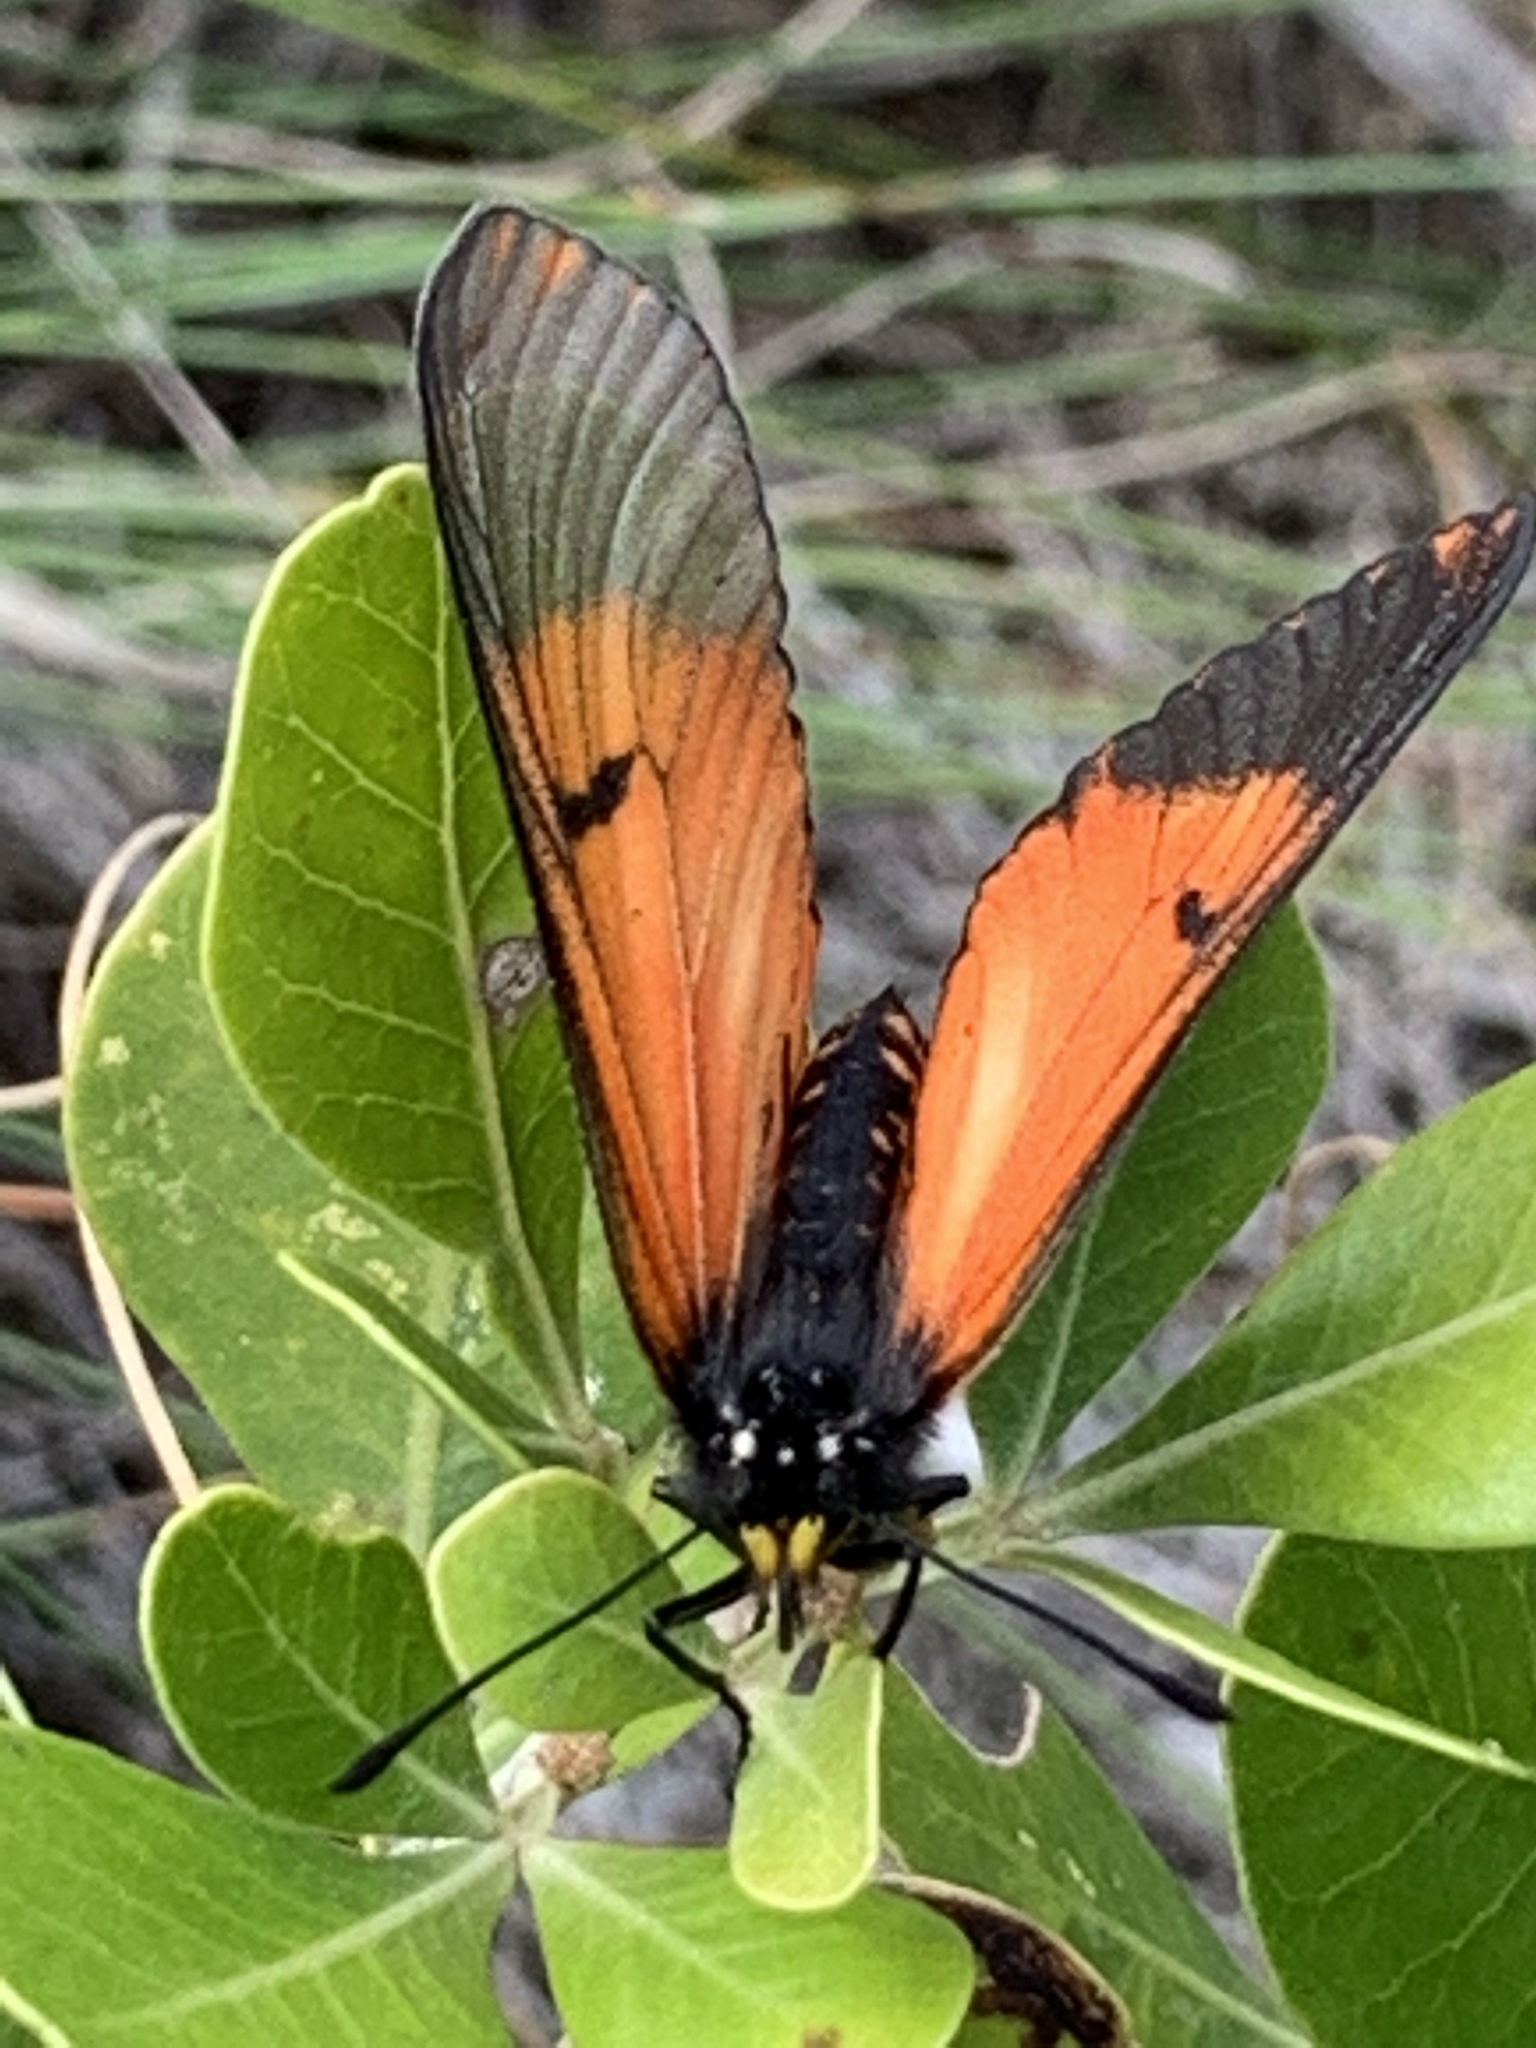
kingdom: Animalia
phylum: Arthropoda
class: Insecta
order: Lepidoptera
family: Nymphalidae
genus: Acraea
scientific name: Acraea horta
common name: Garden acraea
